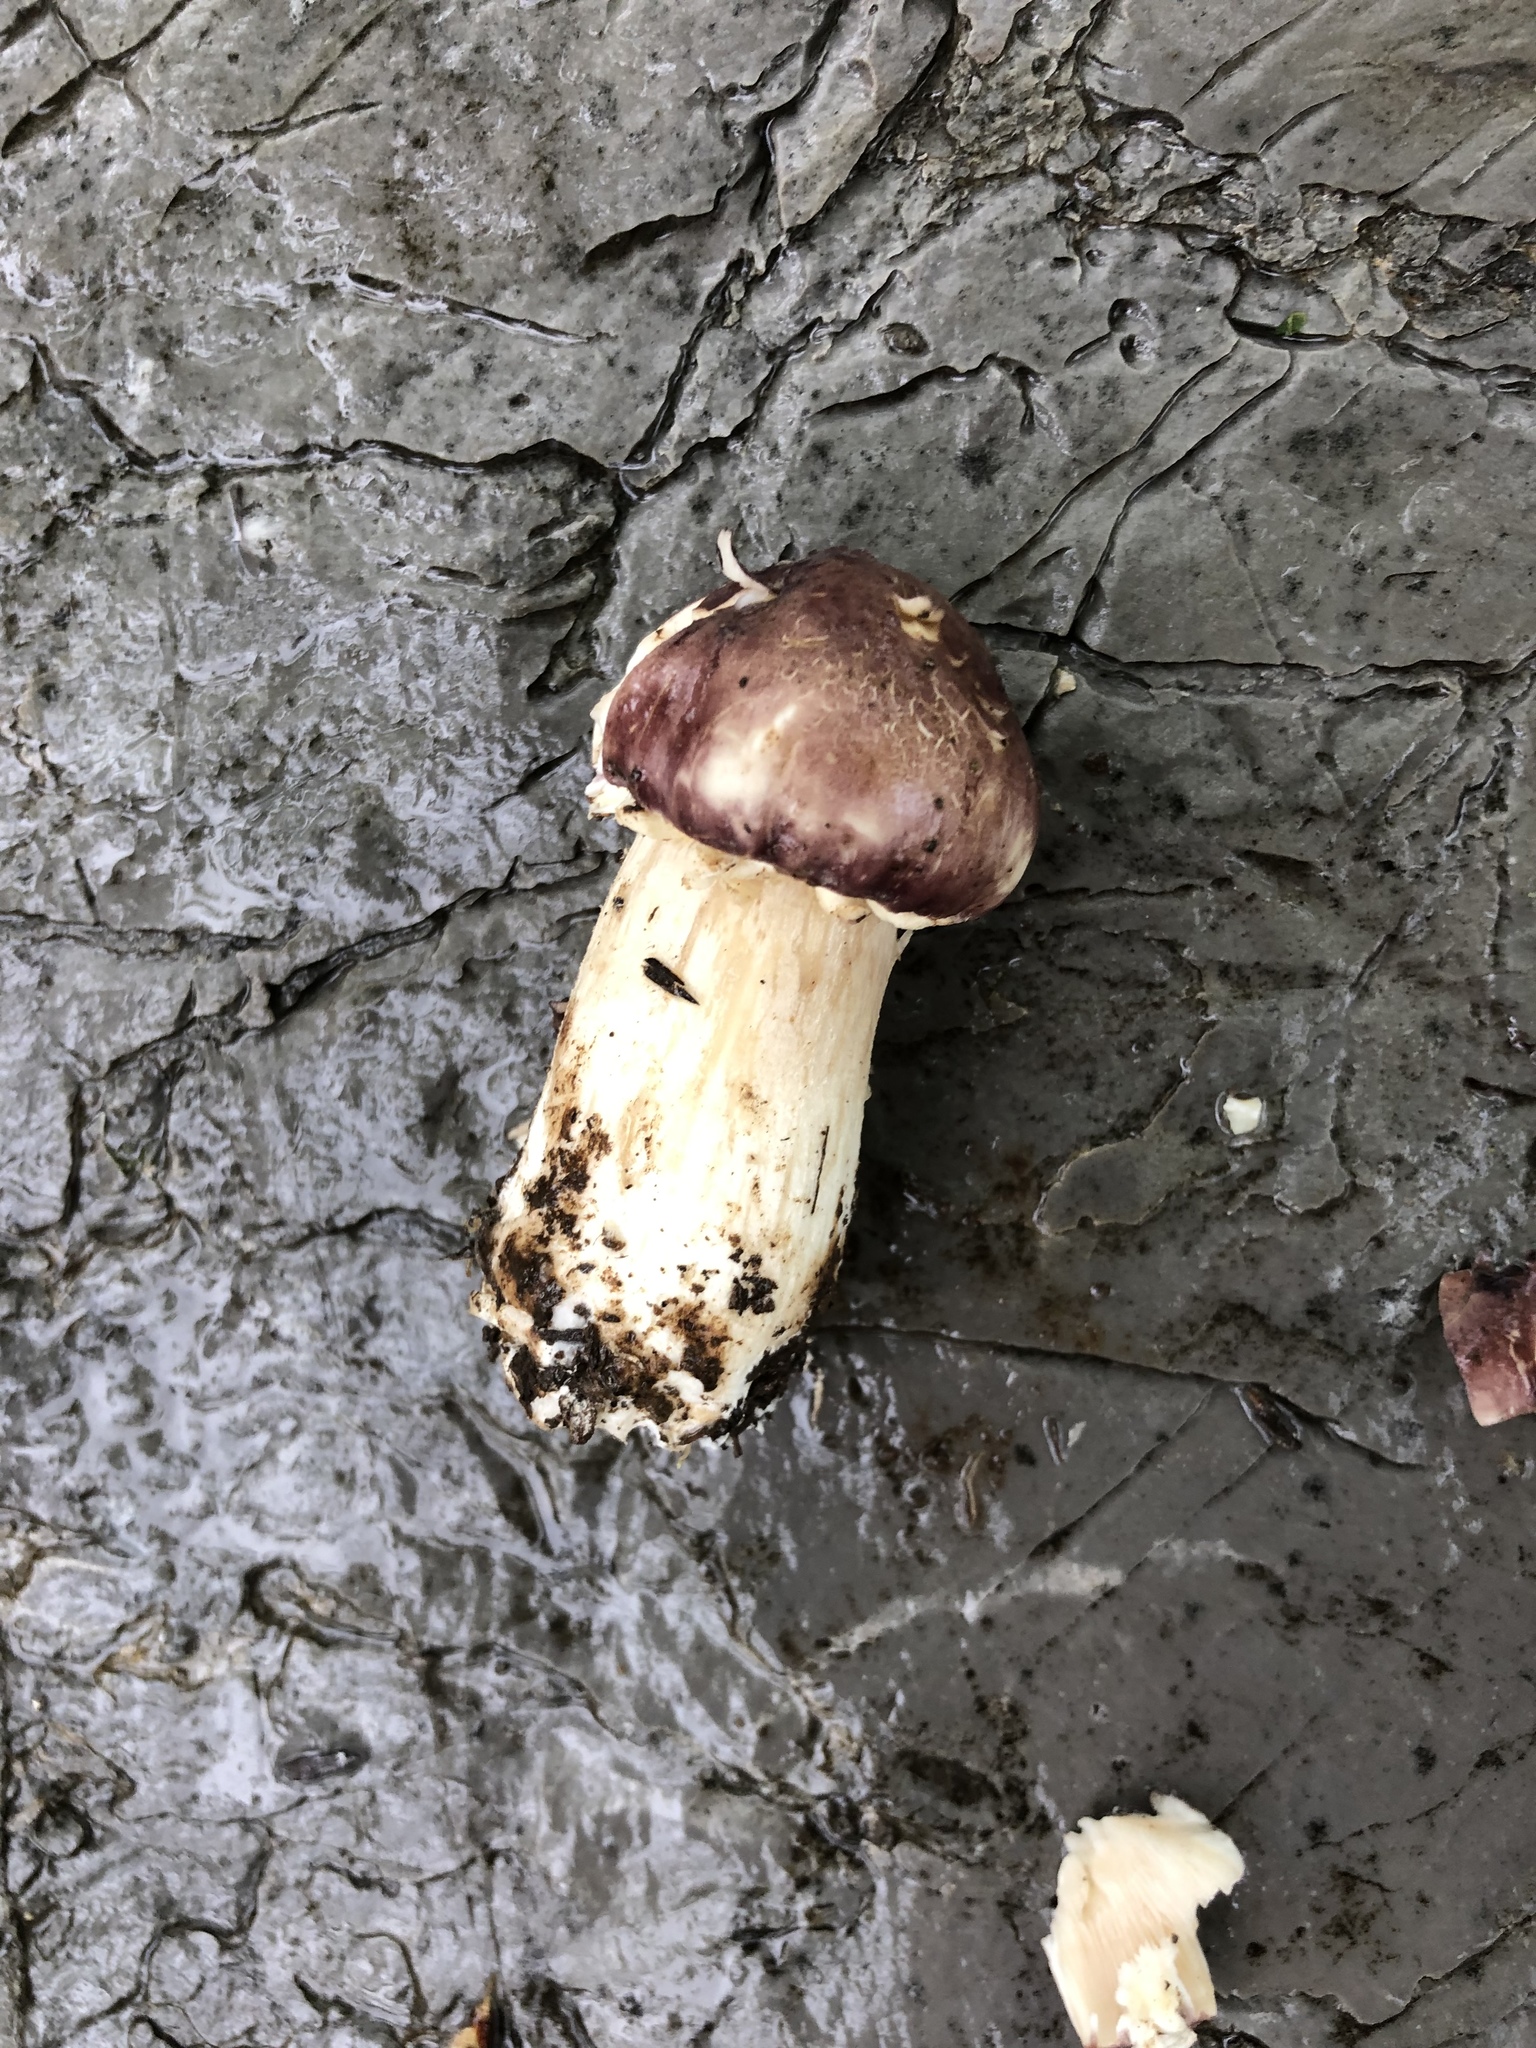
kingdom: Fungi
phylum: Basidiomycota
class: Agaricomycetes
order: Agaricales
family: Strophariaceae
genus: Stropharia
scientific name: Stropharia rugosoannulata
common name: Wine roundhead
